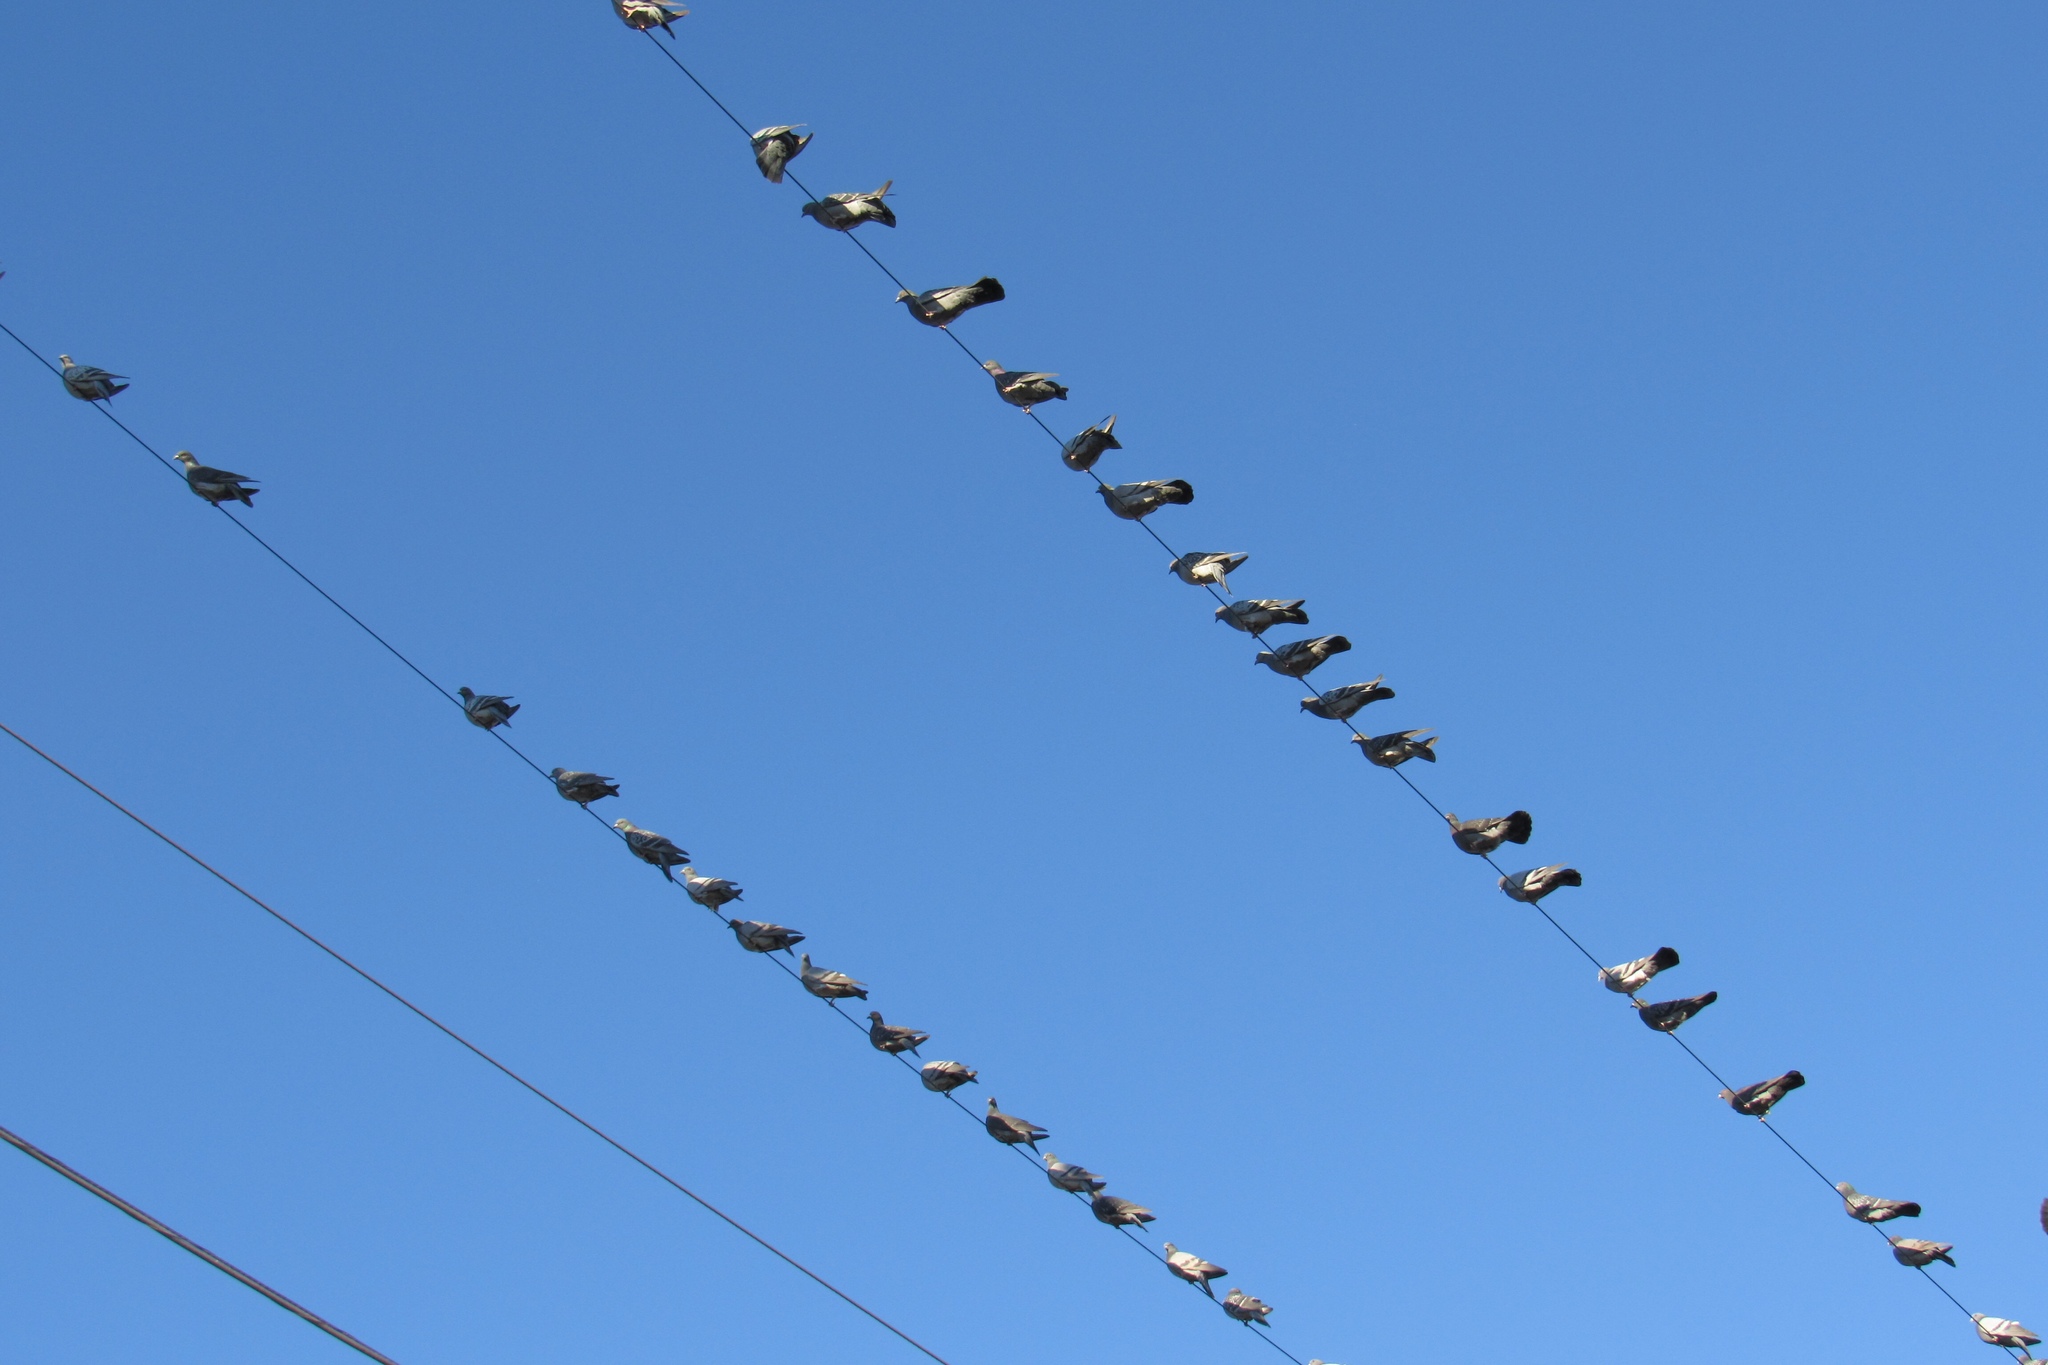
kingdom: Animalia
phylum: Chordata
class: Aves
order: Columbiformes
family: Columbidae
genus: Columba
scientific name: Columba livia
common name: Rock pigeon
